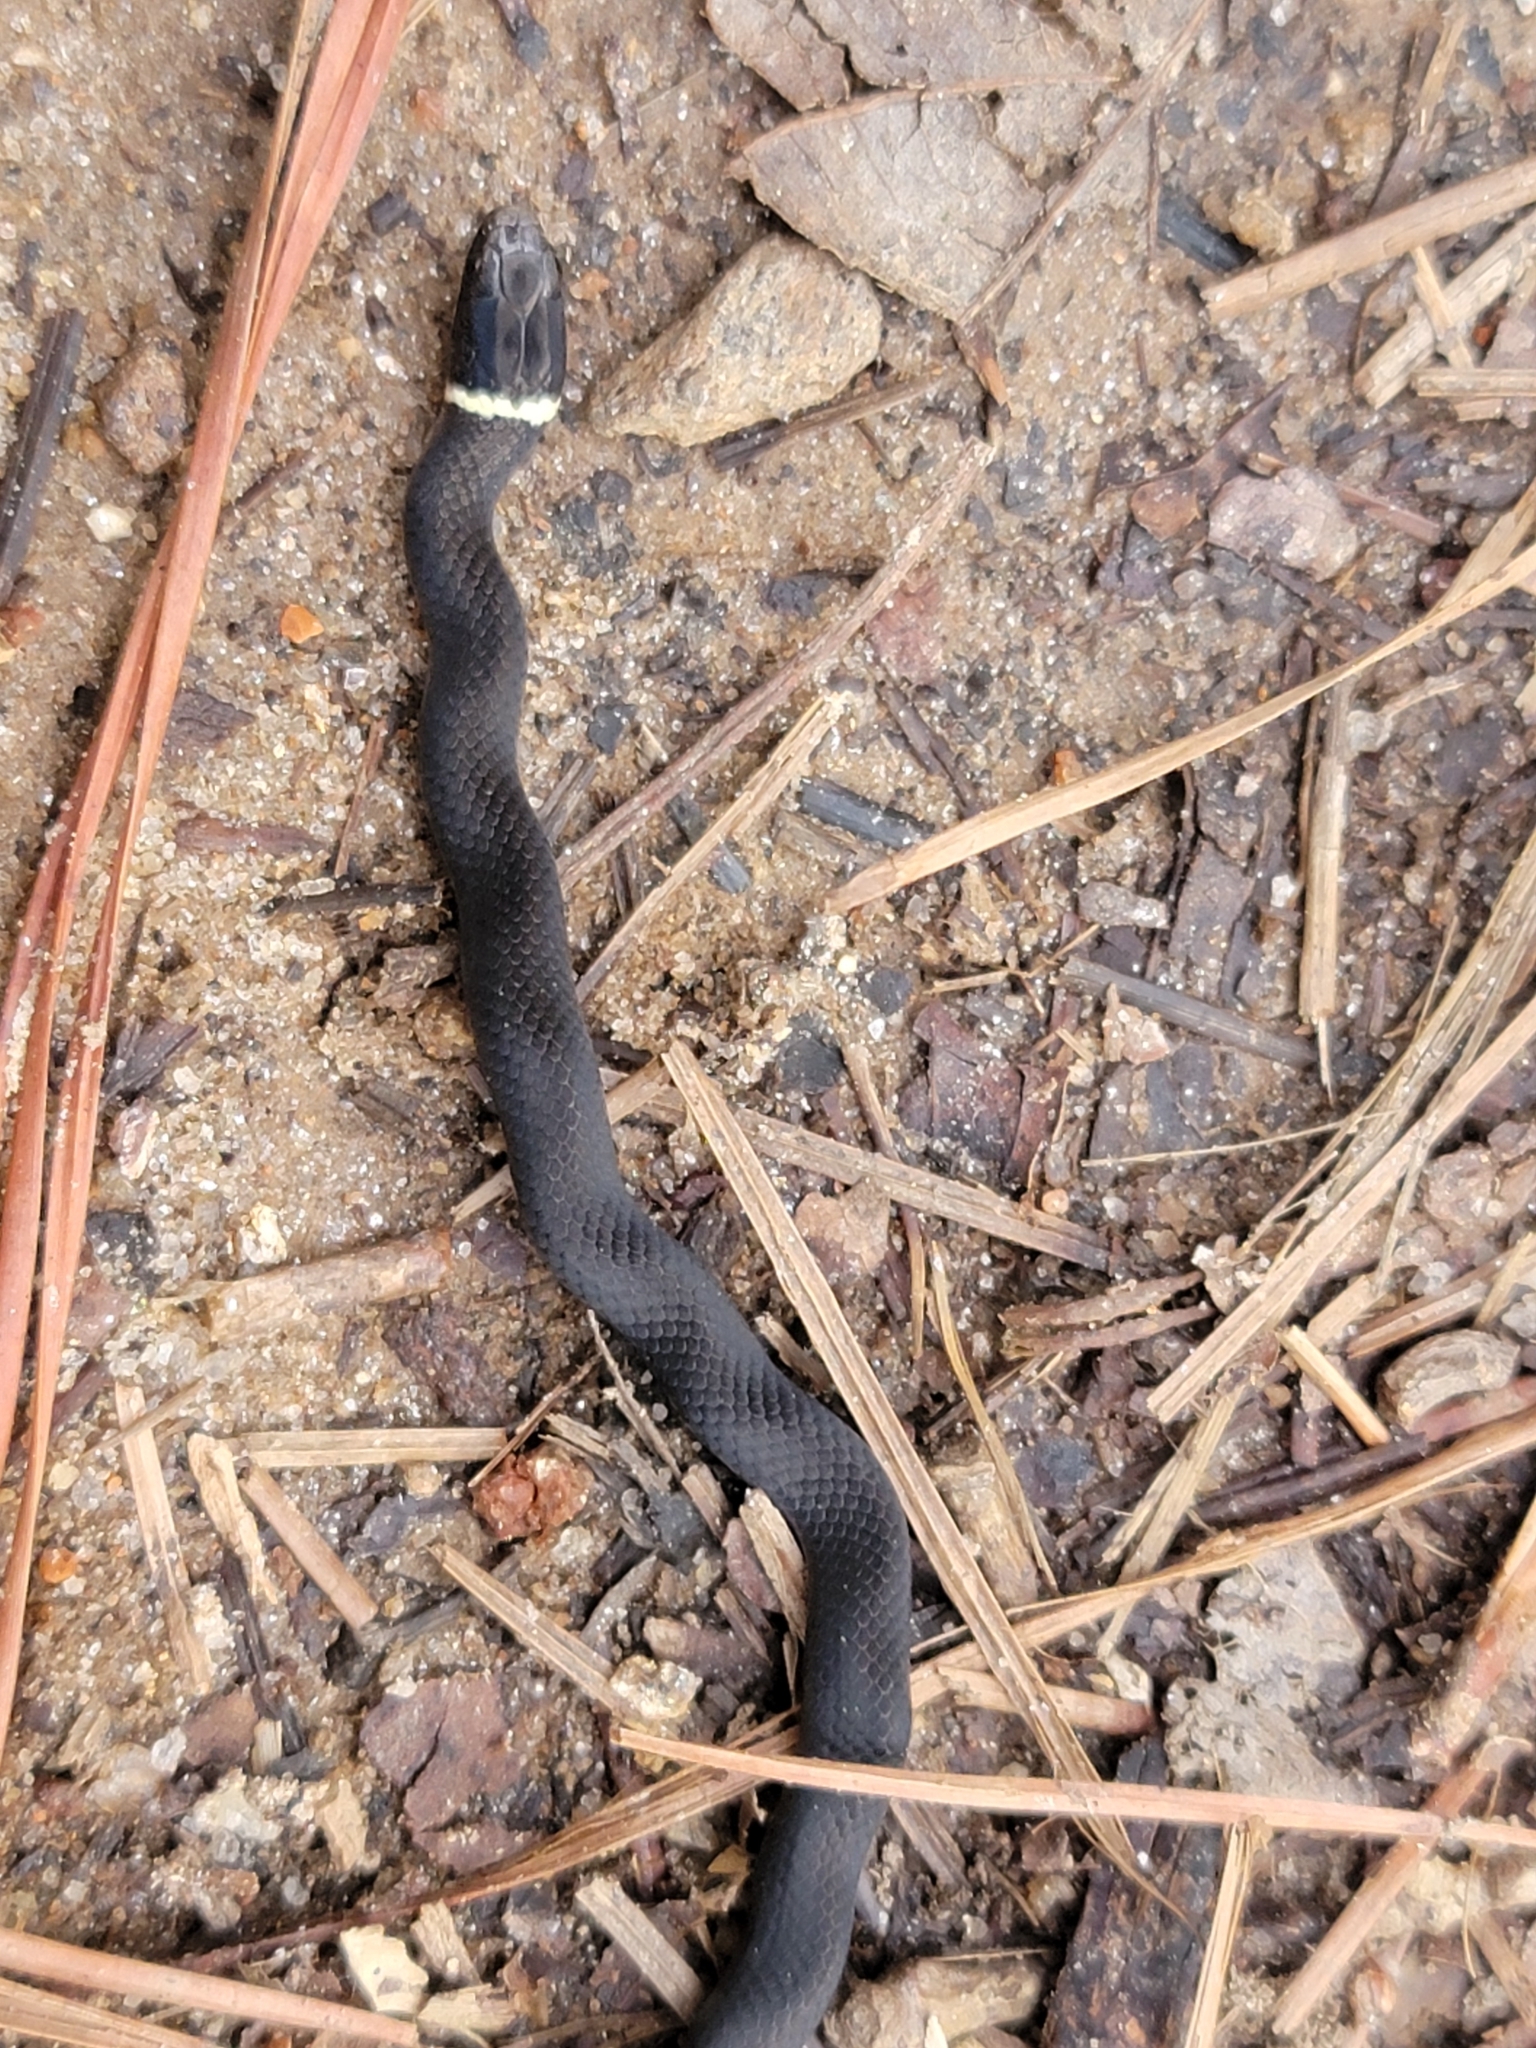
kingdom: Animalia
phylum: Chordata
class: Squamata
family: Colubridae
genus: Diadophis
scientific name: Diadophis punctatus
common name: Ringneck snake
